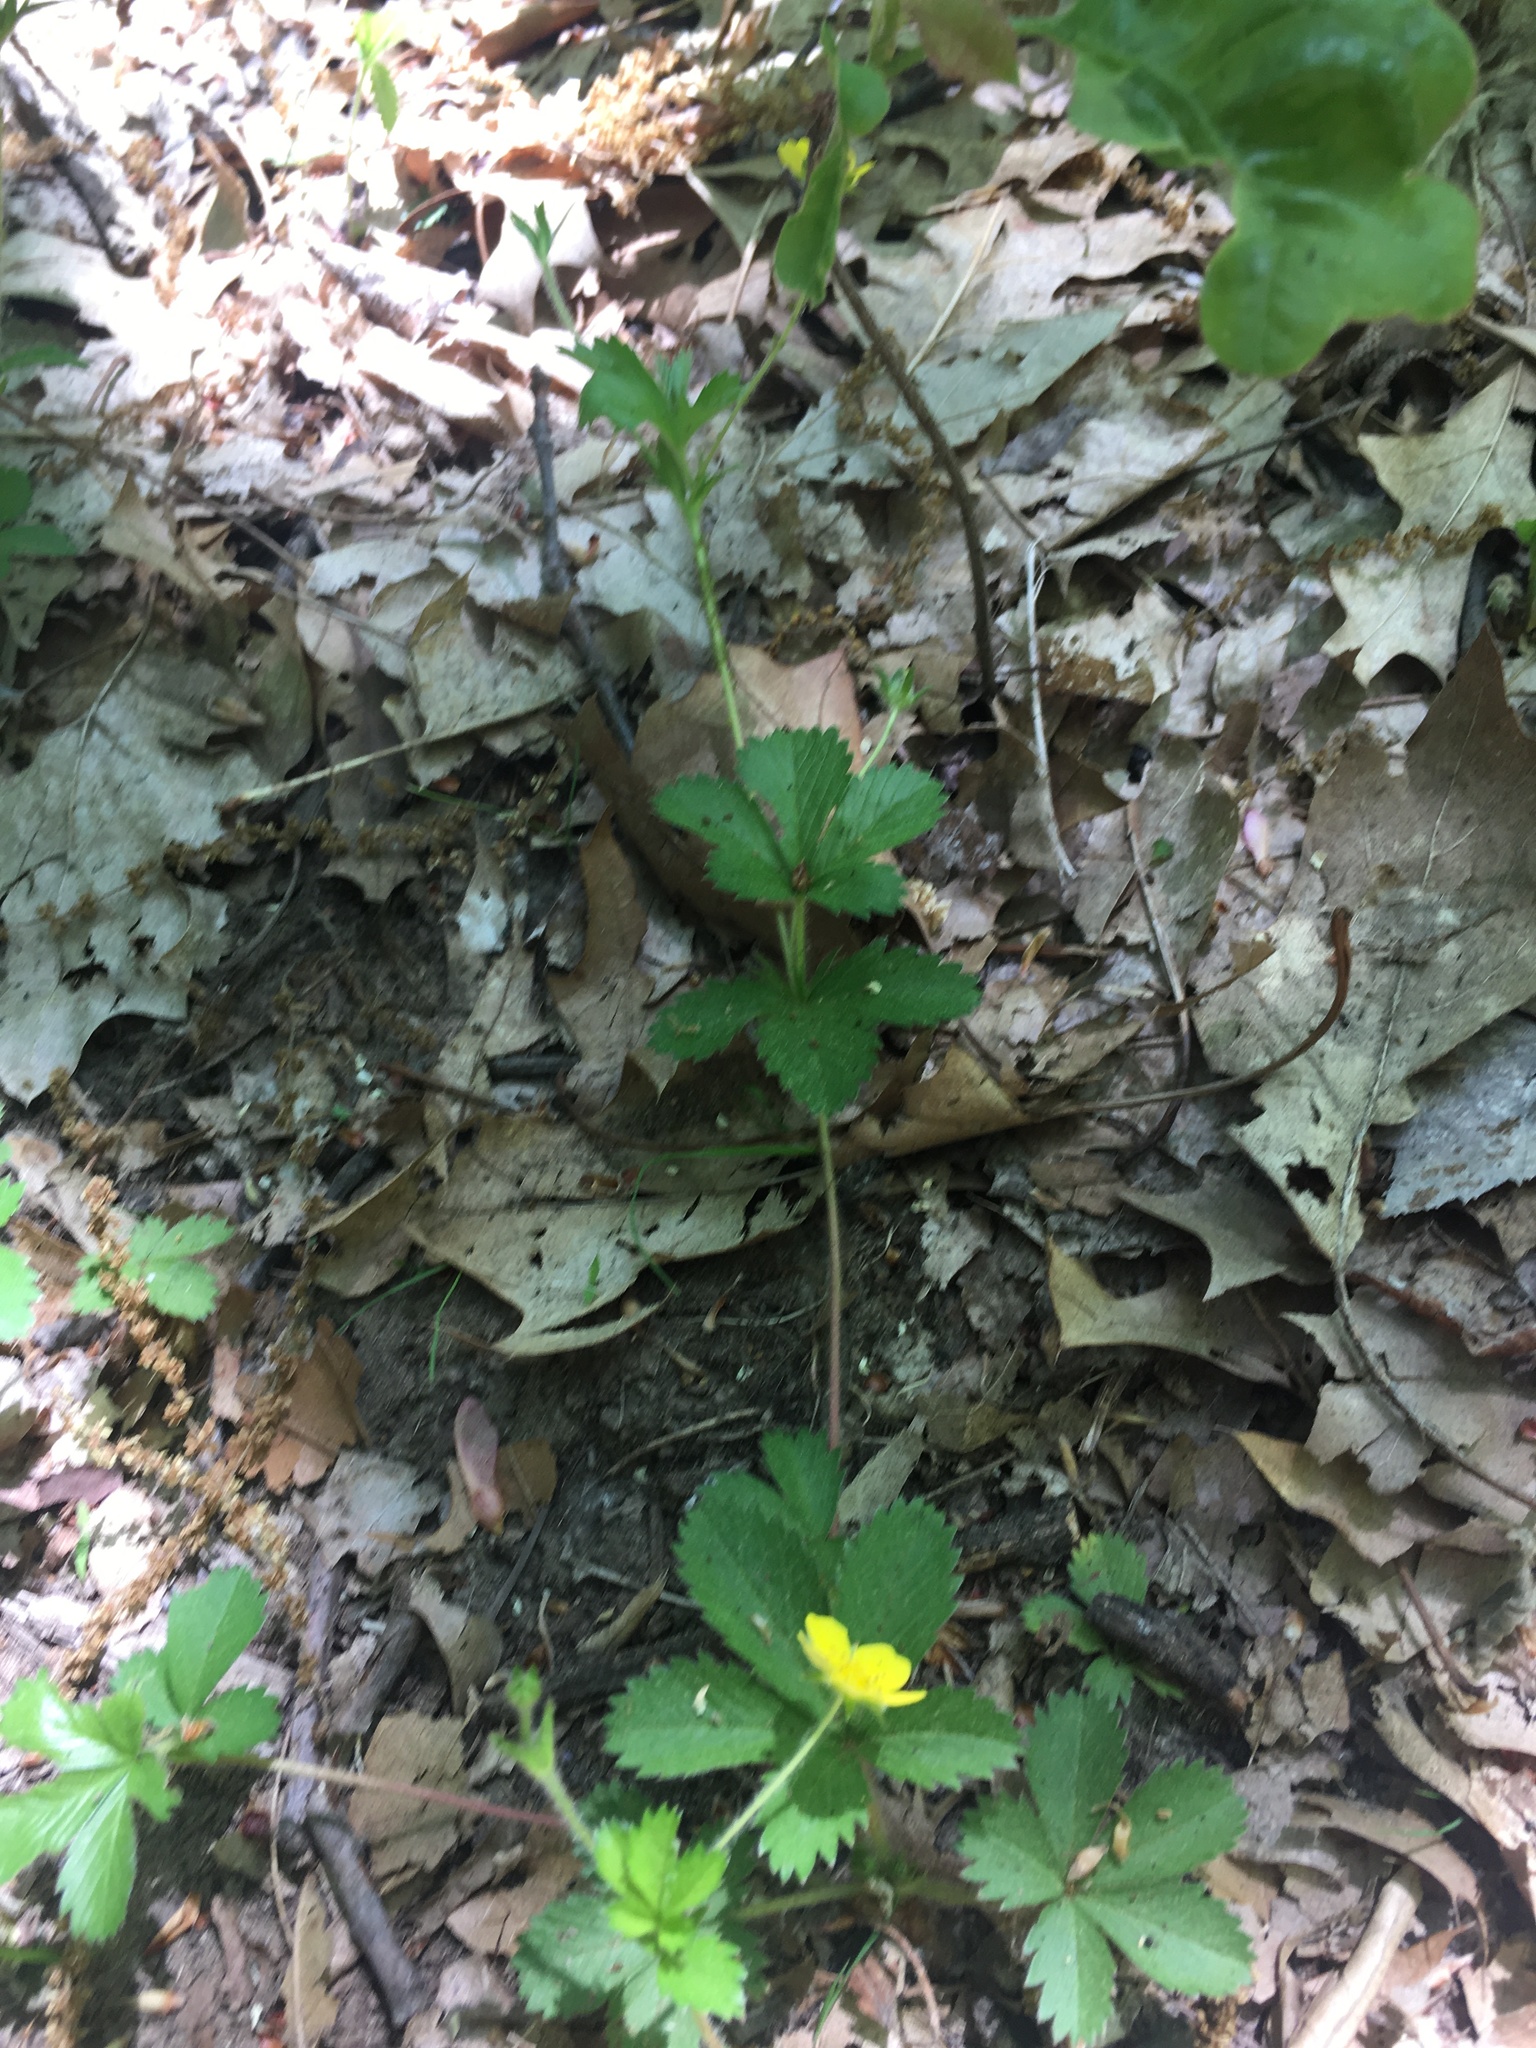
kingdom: Plantae
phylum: Tracheophyta
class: Magnoliopsida
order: Rosales
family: Rosaceae
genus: Potentilla
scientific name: Potentilla simplex
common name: Old field cinquefoil
